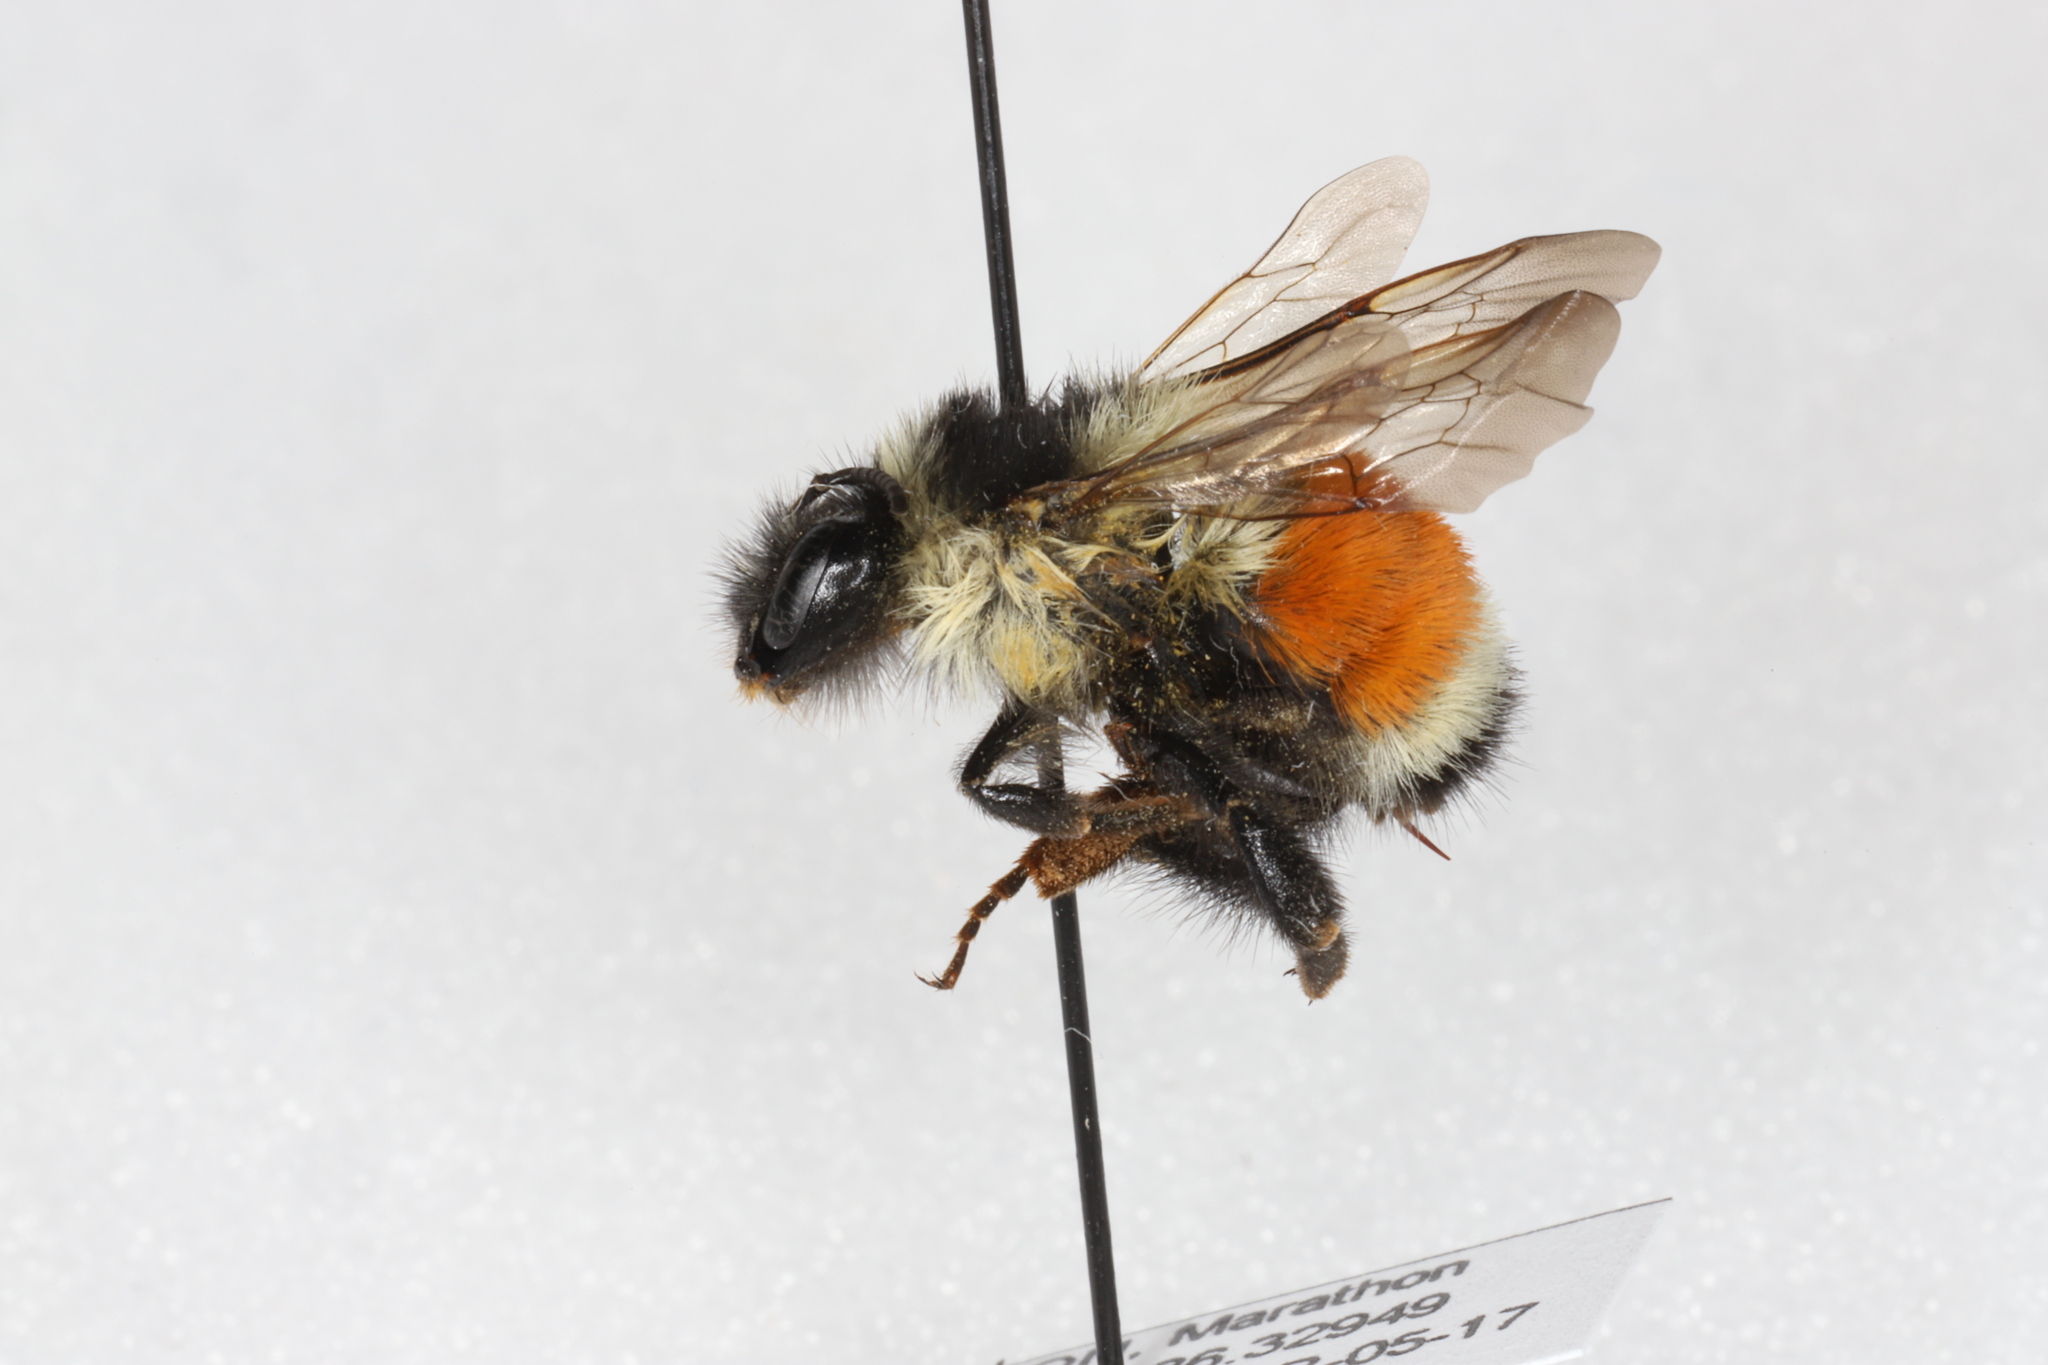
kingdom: Animalia
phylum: Arthropoda
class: Insecta
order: Hymenoptera
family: Apidae
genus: Bombus
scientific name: Bombus ternarius
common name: Tri-colored bumble bee
